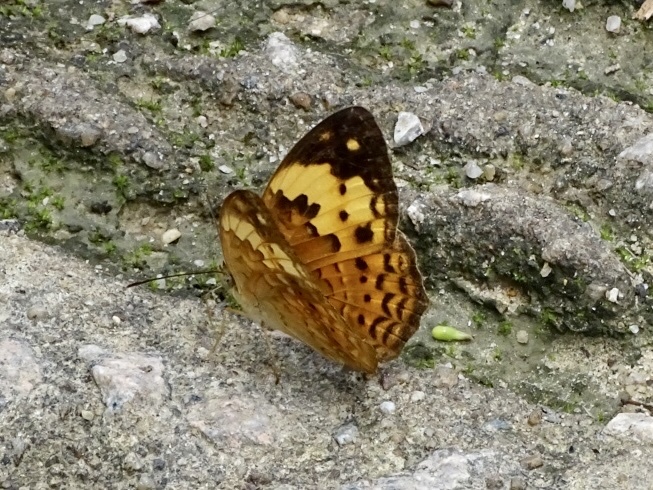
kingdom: Animalia
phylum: Arthropoda
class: Insecta
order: Lepidoptera
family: Nymphalidae
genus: Cupha
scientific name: Cupha erymanthis
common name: Rustic
